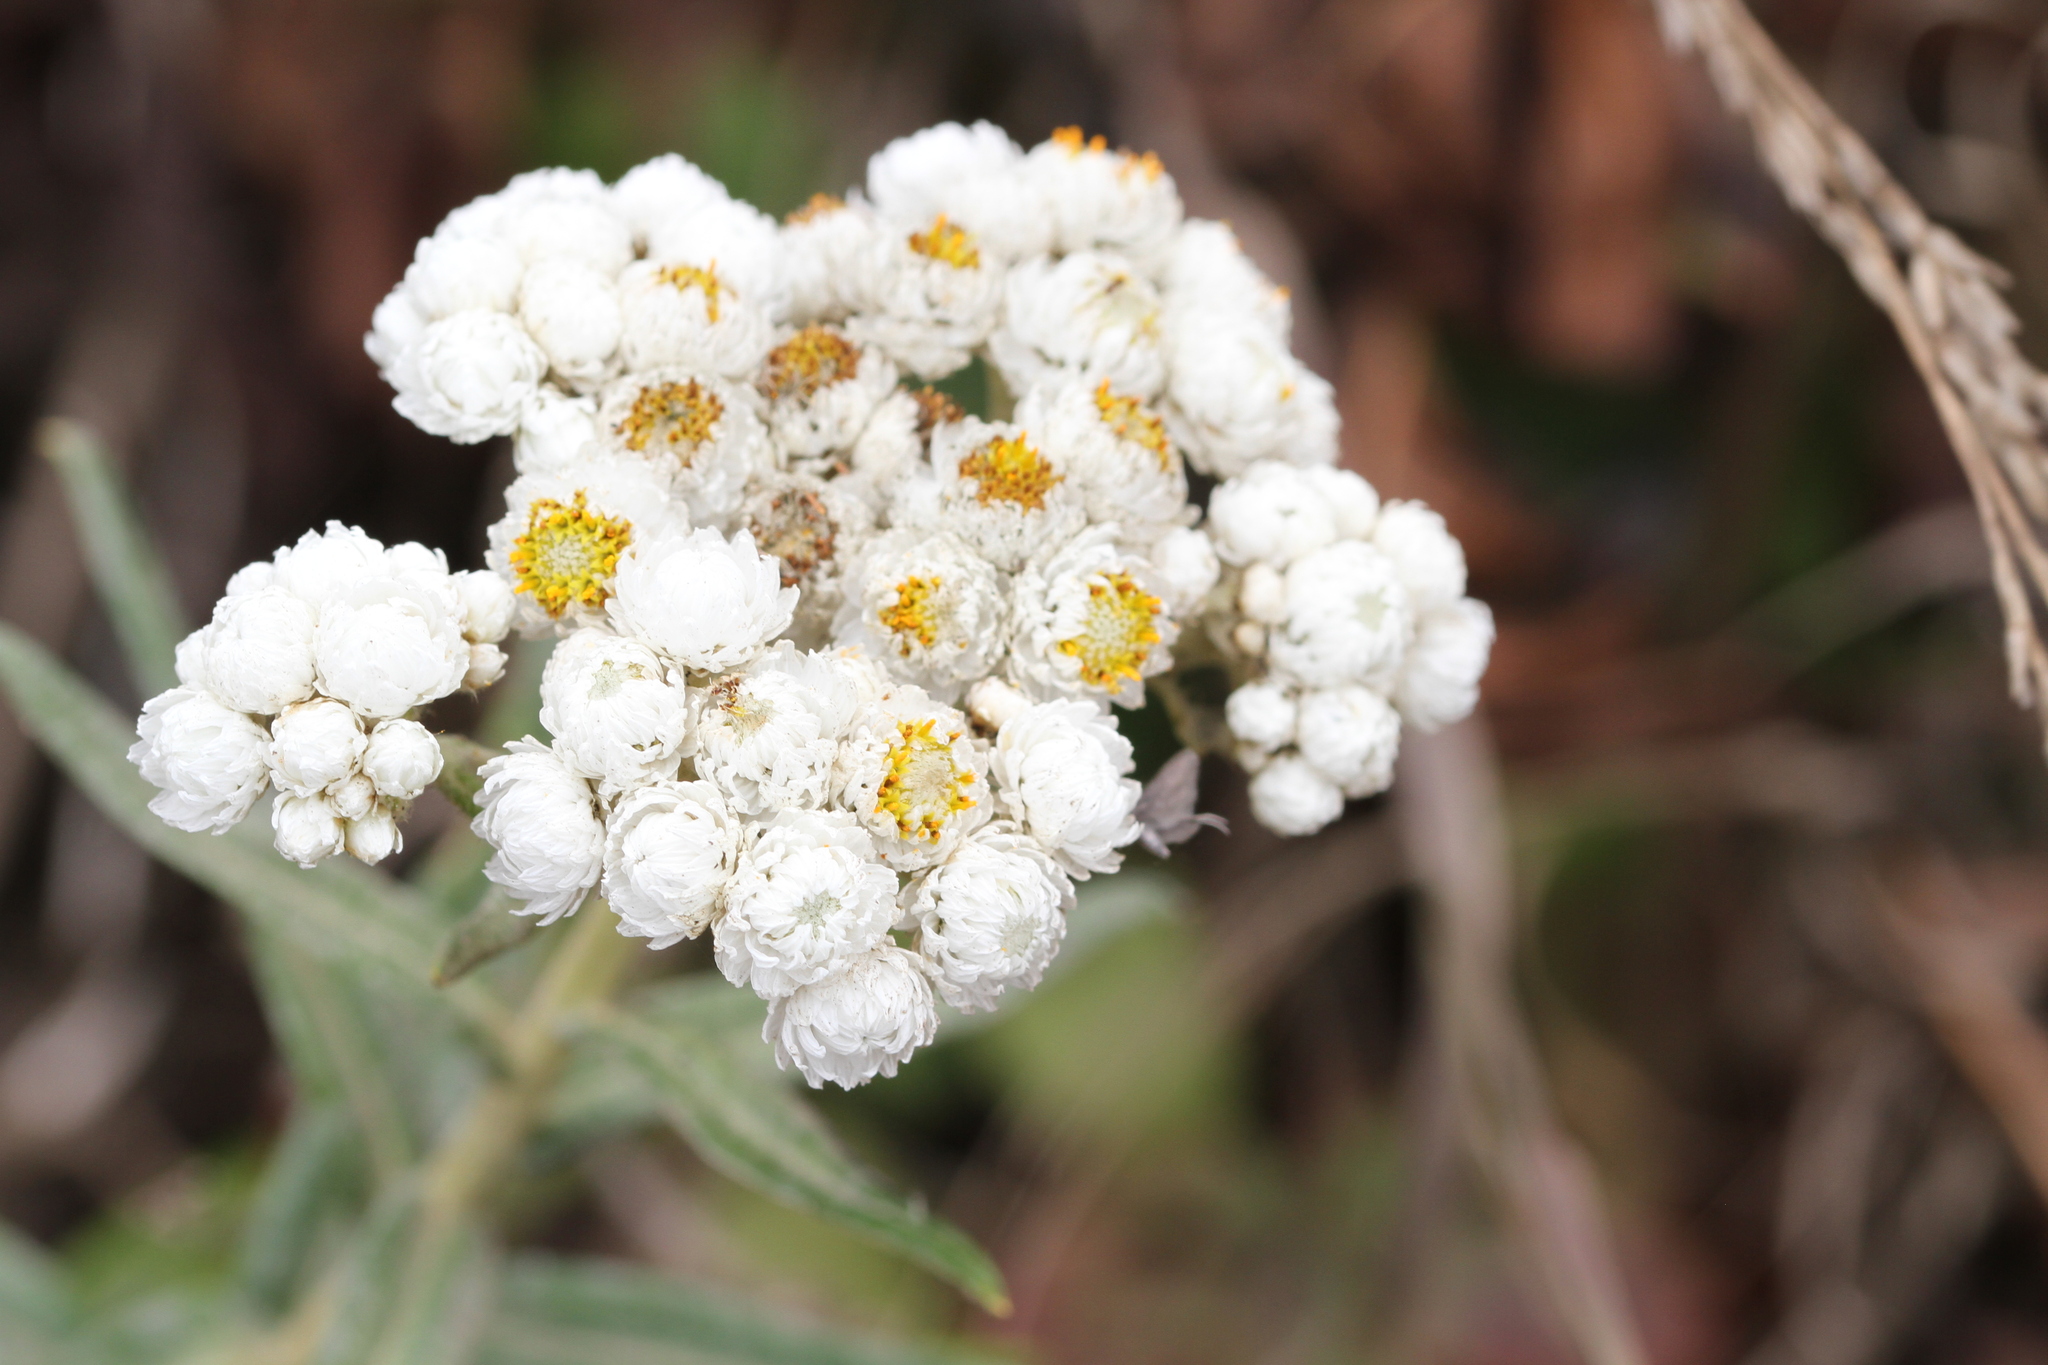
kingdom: Plantae
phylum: Tracheophyta
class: Magnoliopsida
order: Asterales
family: Asteraceae
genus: Anaphalis
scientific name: Anaphalis margaritacea
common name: Pearly everlasting
